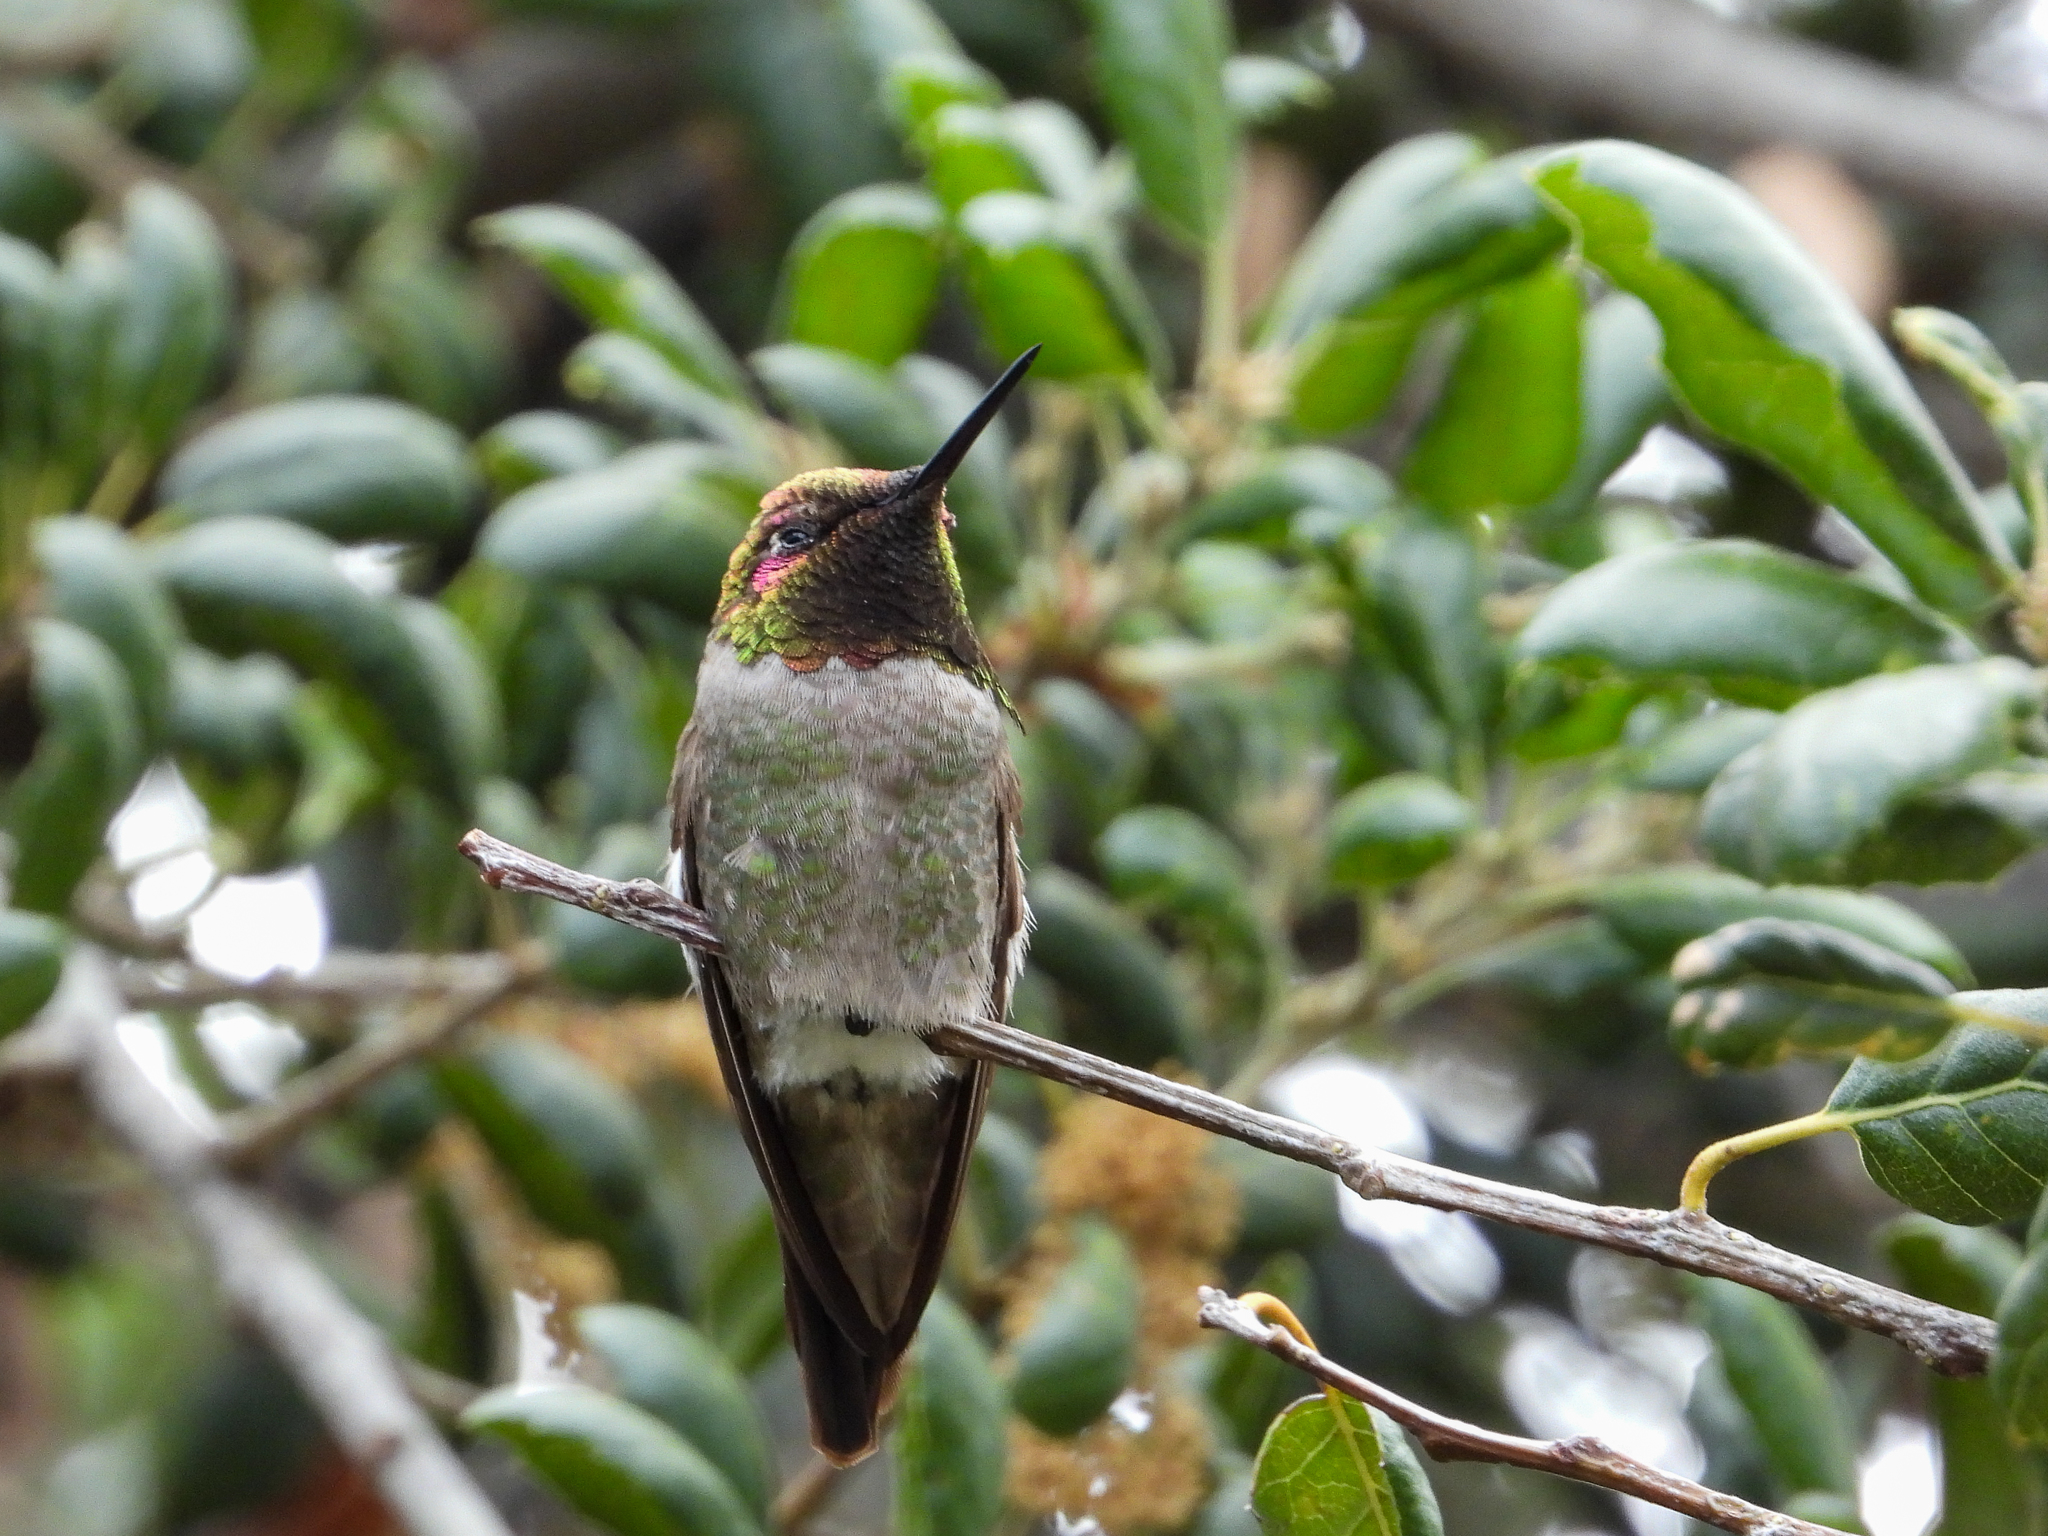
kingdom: Animalia
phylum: Chordata
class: Aves
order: Apodiformes
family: Trochilidae
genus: Calypte
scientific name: Calypte anna
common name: Anna's hummingbird
